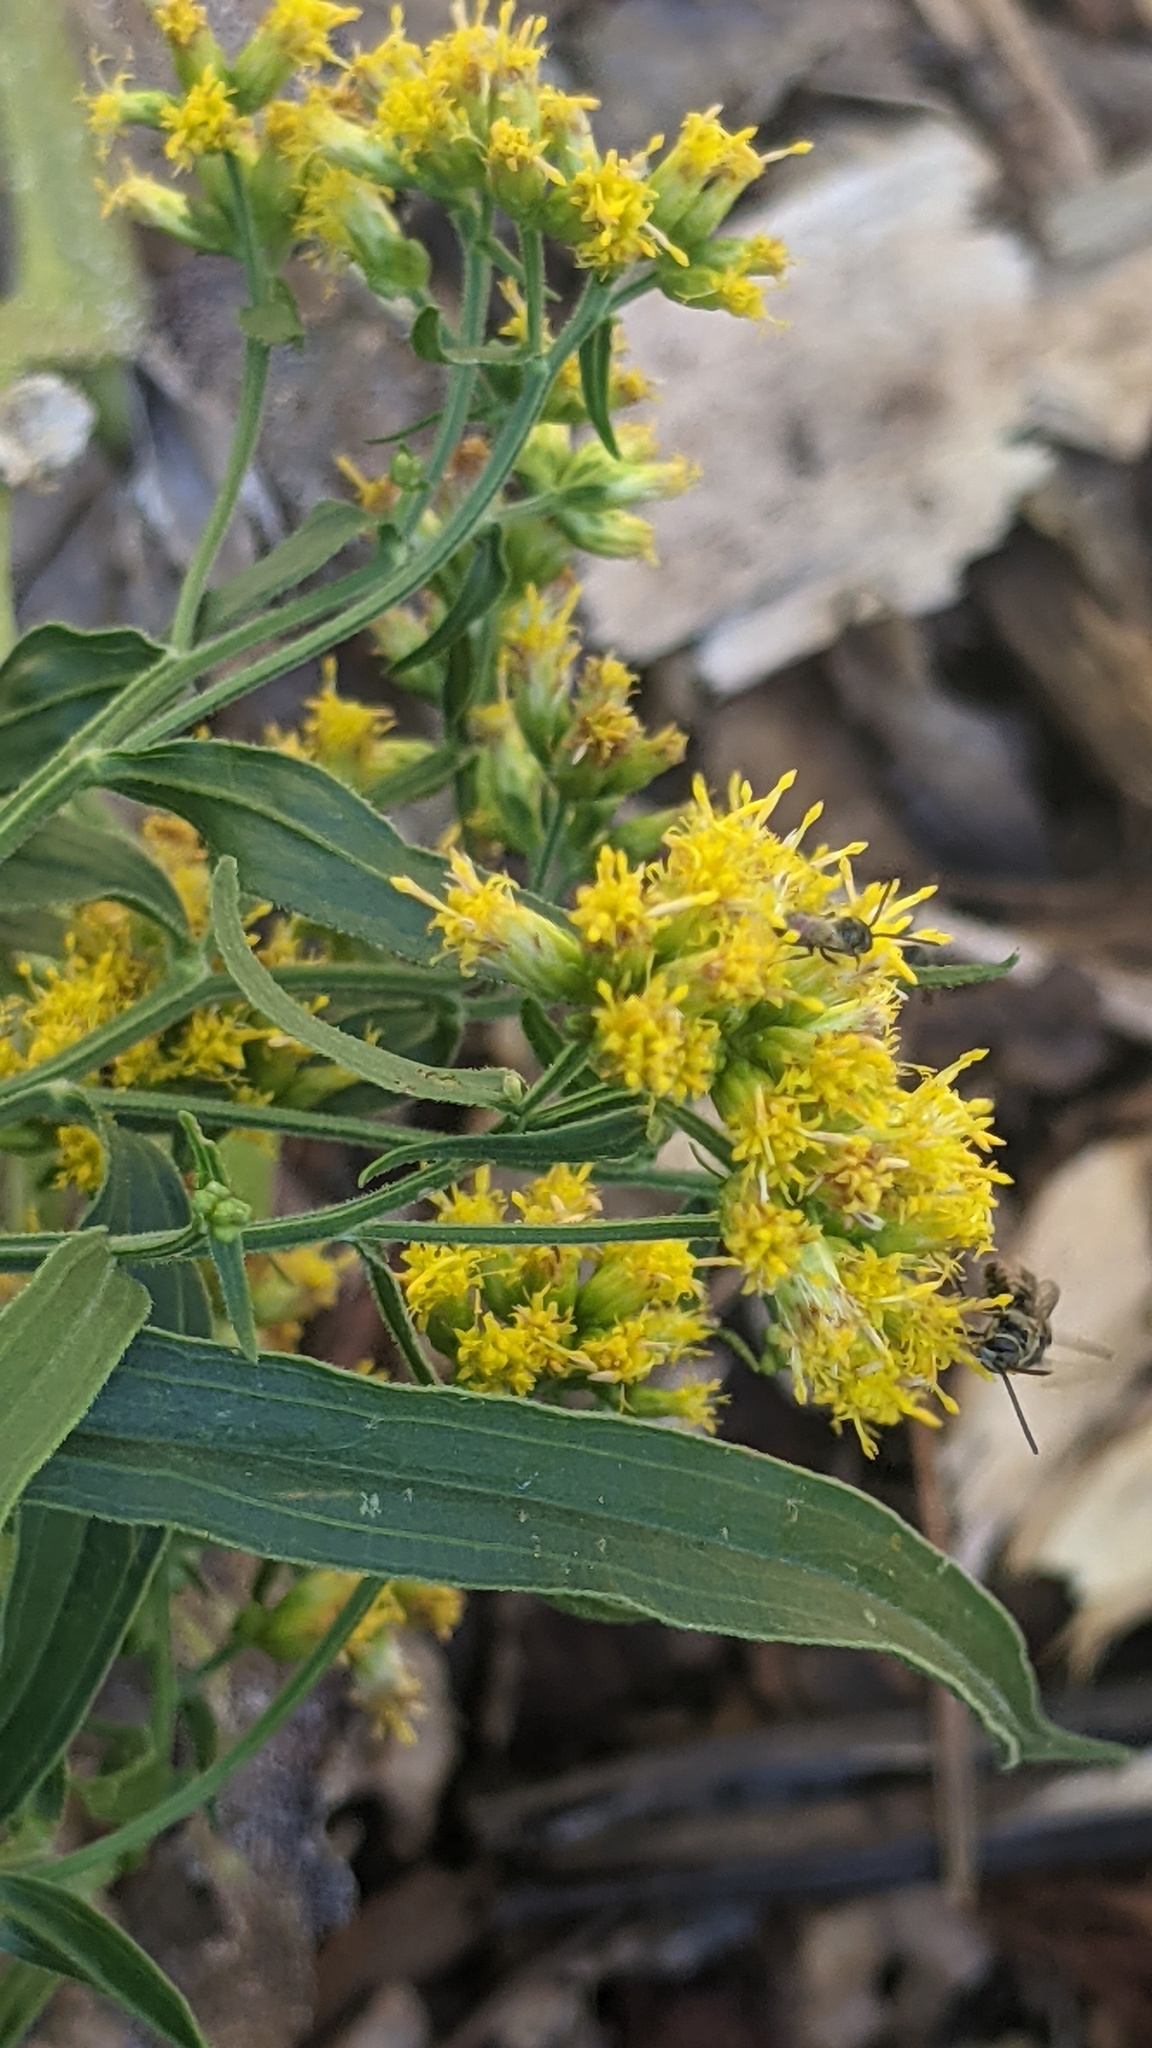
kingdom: Animalia
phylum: Arthropoda
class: Insecta
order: Hymenoptera
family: Halictidae
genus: Dialictus
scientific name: Dialictus
